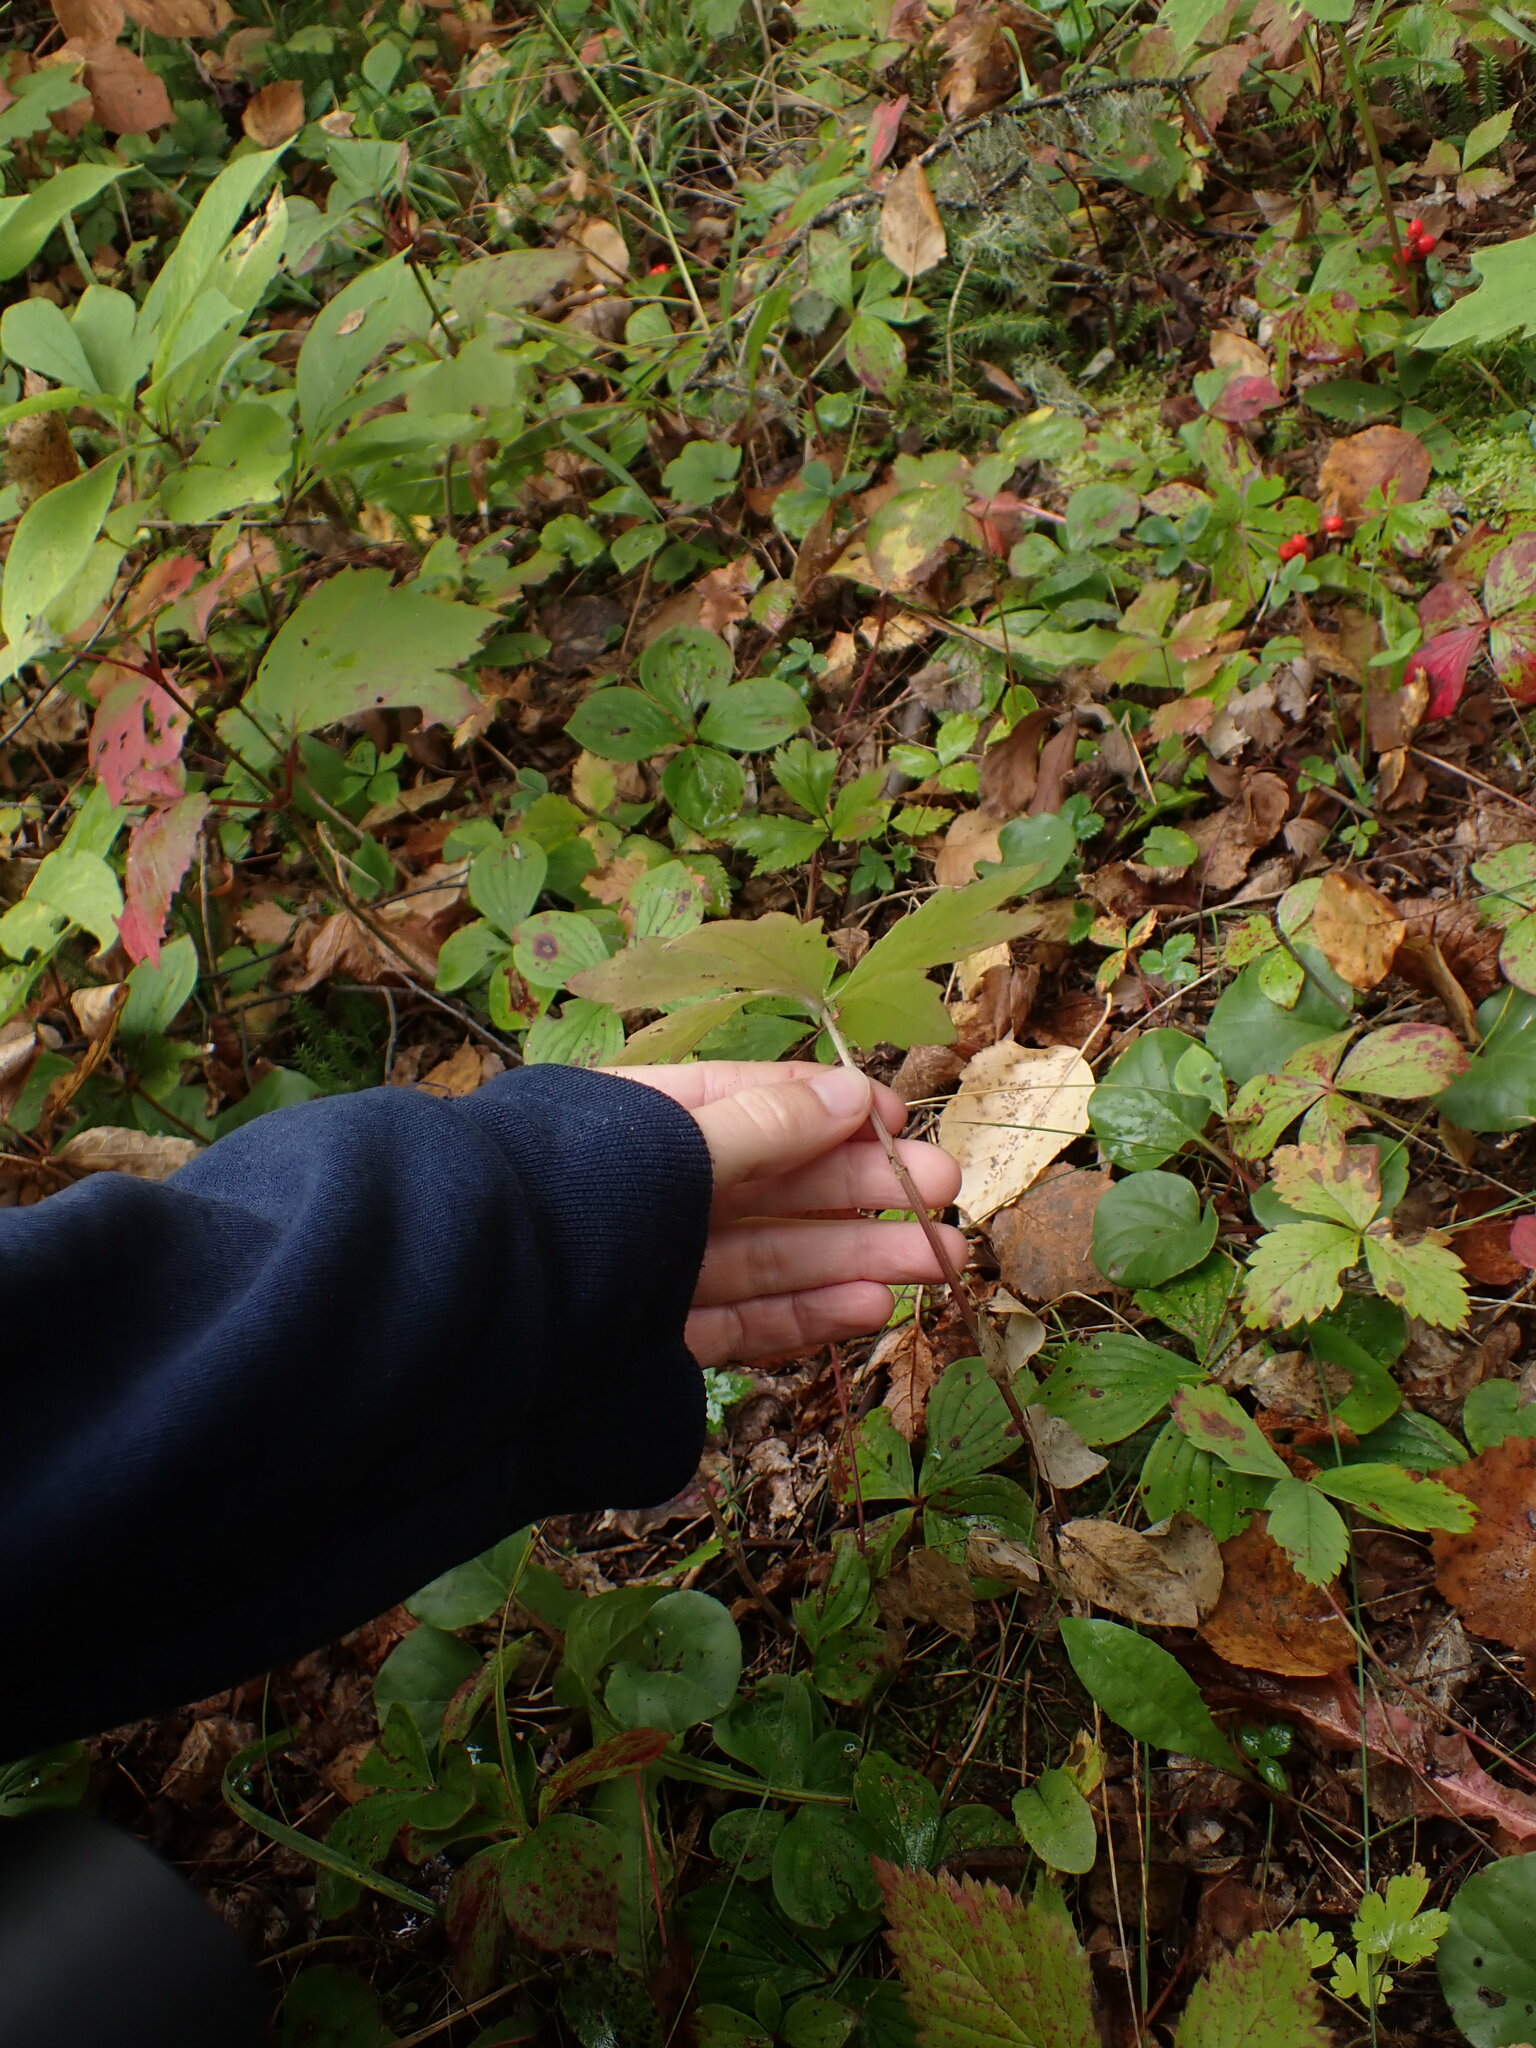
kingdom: Plantae
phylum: Tracheophyta
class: Magnoliopsida
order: Asterales
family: Asteraceae
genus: Petasites
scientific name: Petasites frigidus
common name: Arctic butterbur
